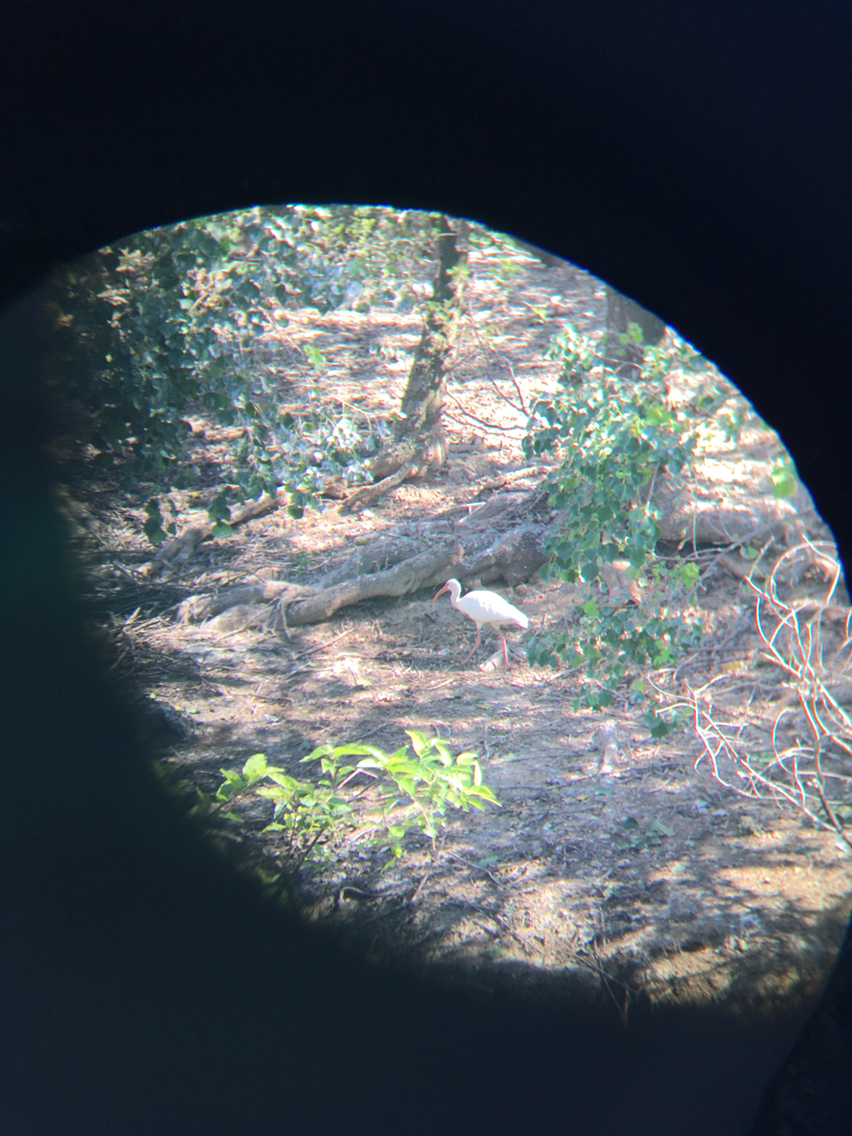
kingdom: Animalia
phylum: Chordata
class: Aves
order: Pelecaniformes
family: Threskiornithidae
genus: Eudocimus
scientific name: Eudocimus albus
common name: White ibis
